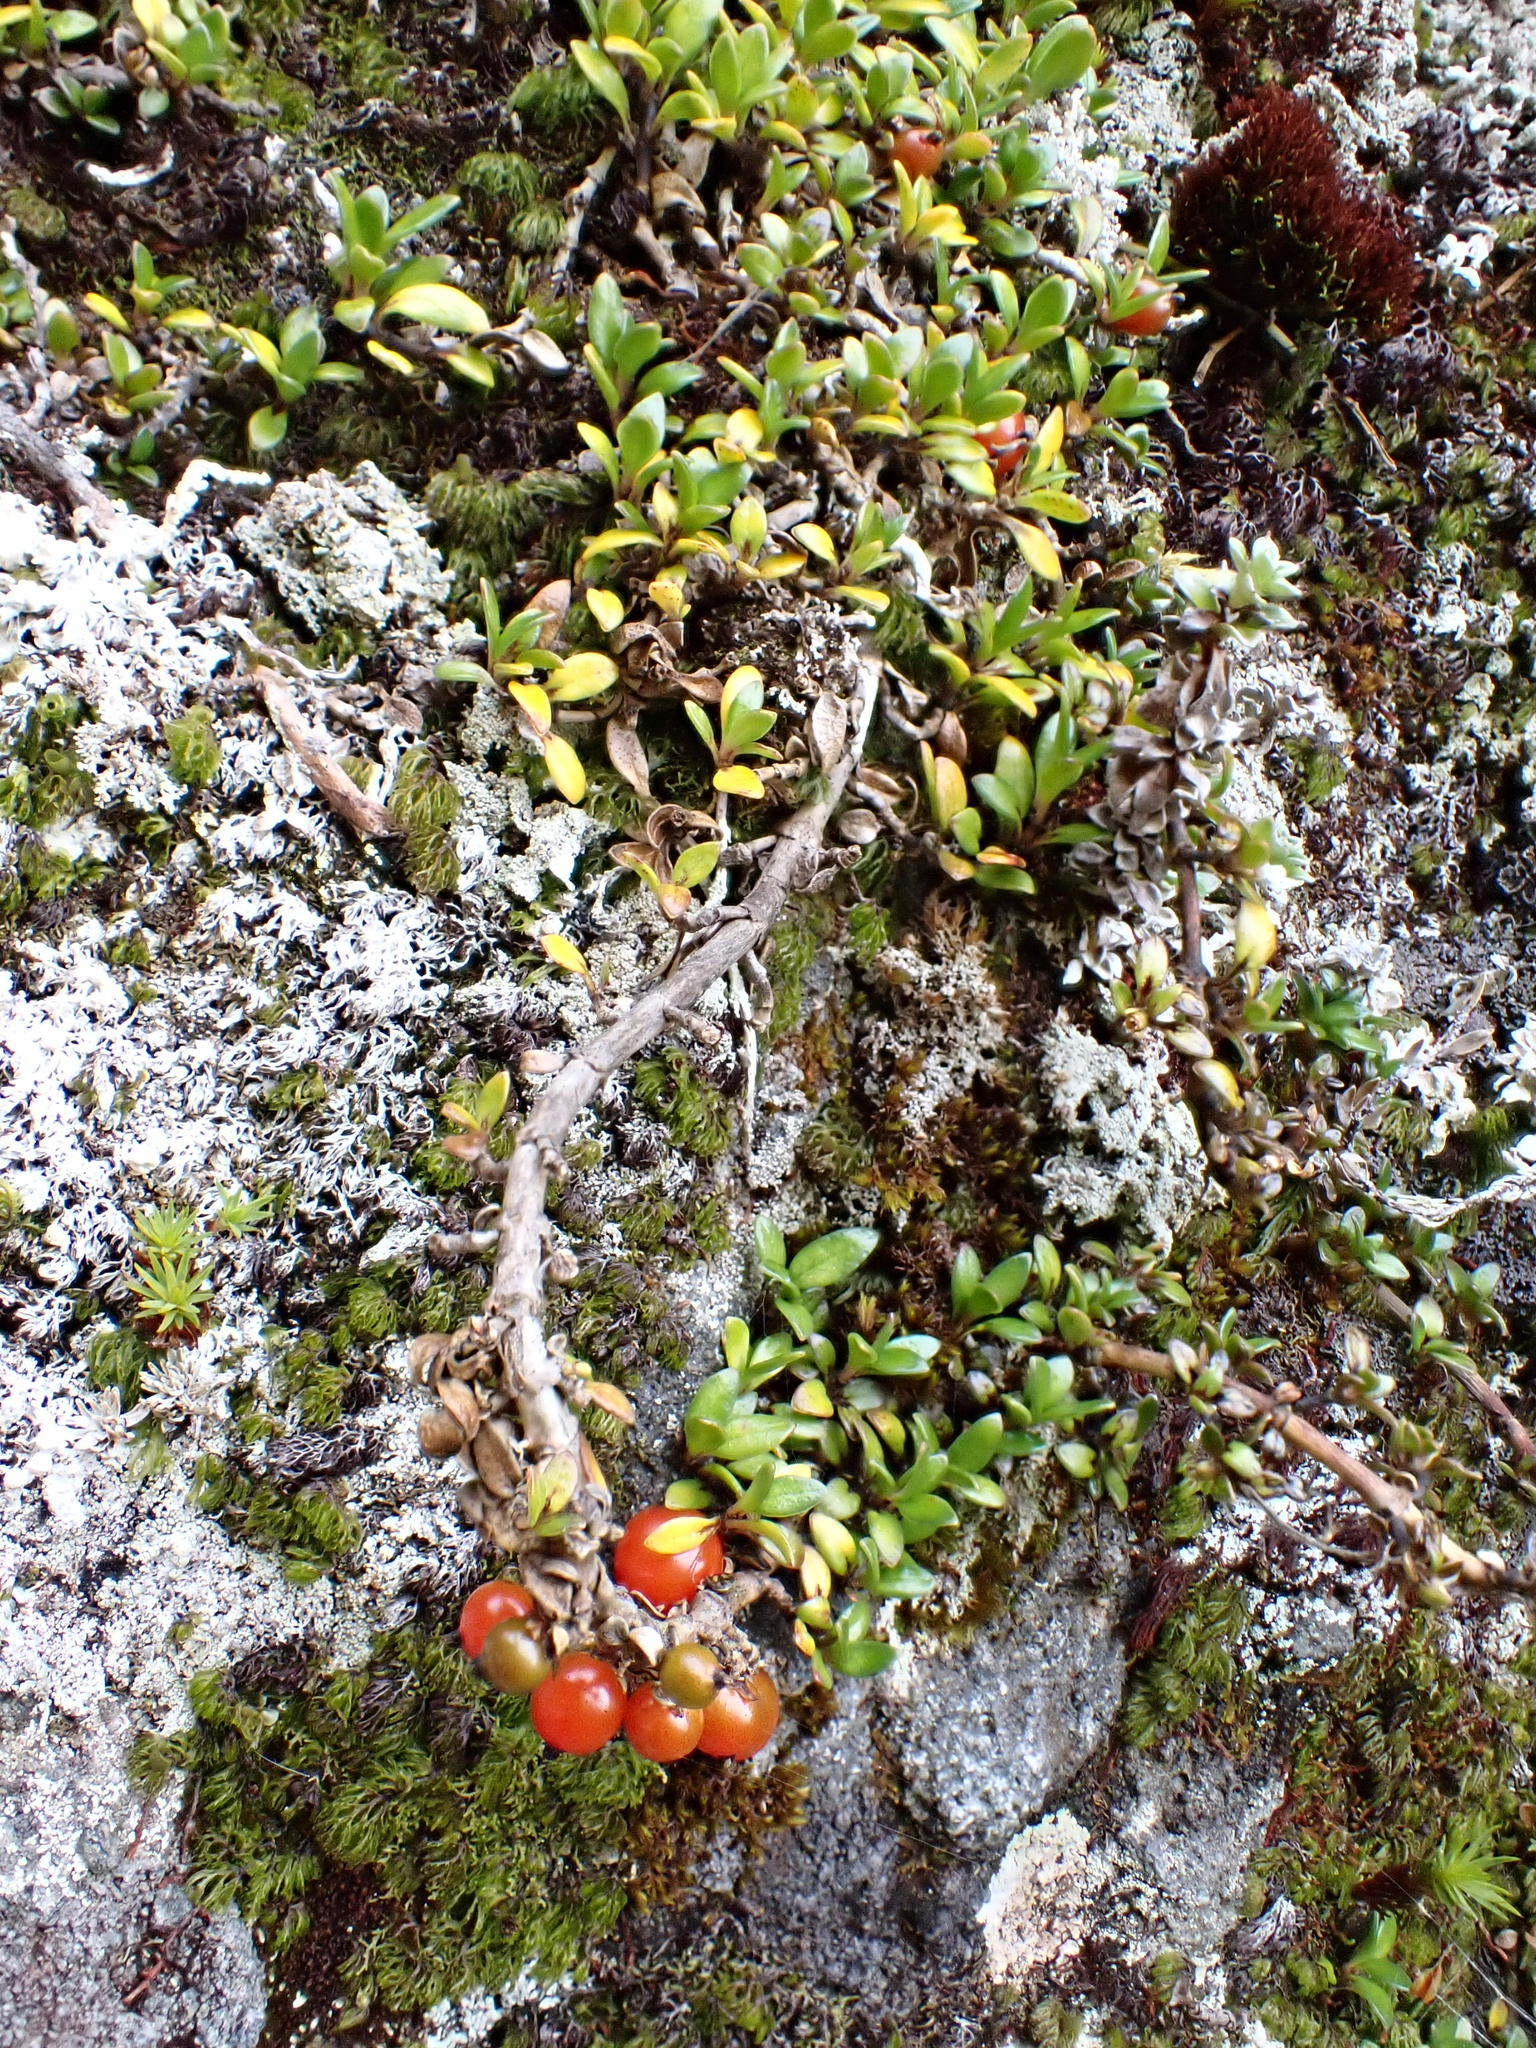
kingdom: Plantae
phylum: Tracheophyta
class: Magnoliopsida
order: Gentianales
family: Rubiaceae
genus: Coprosma
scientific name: Coprosma perpusilla
